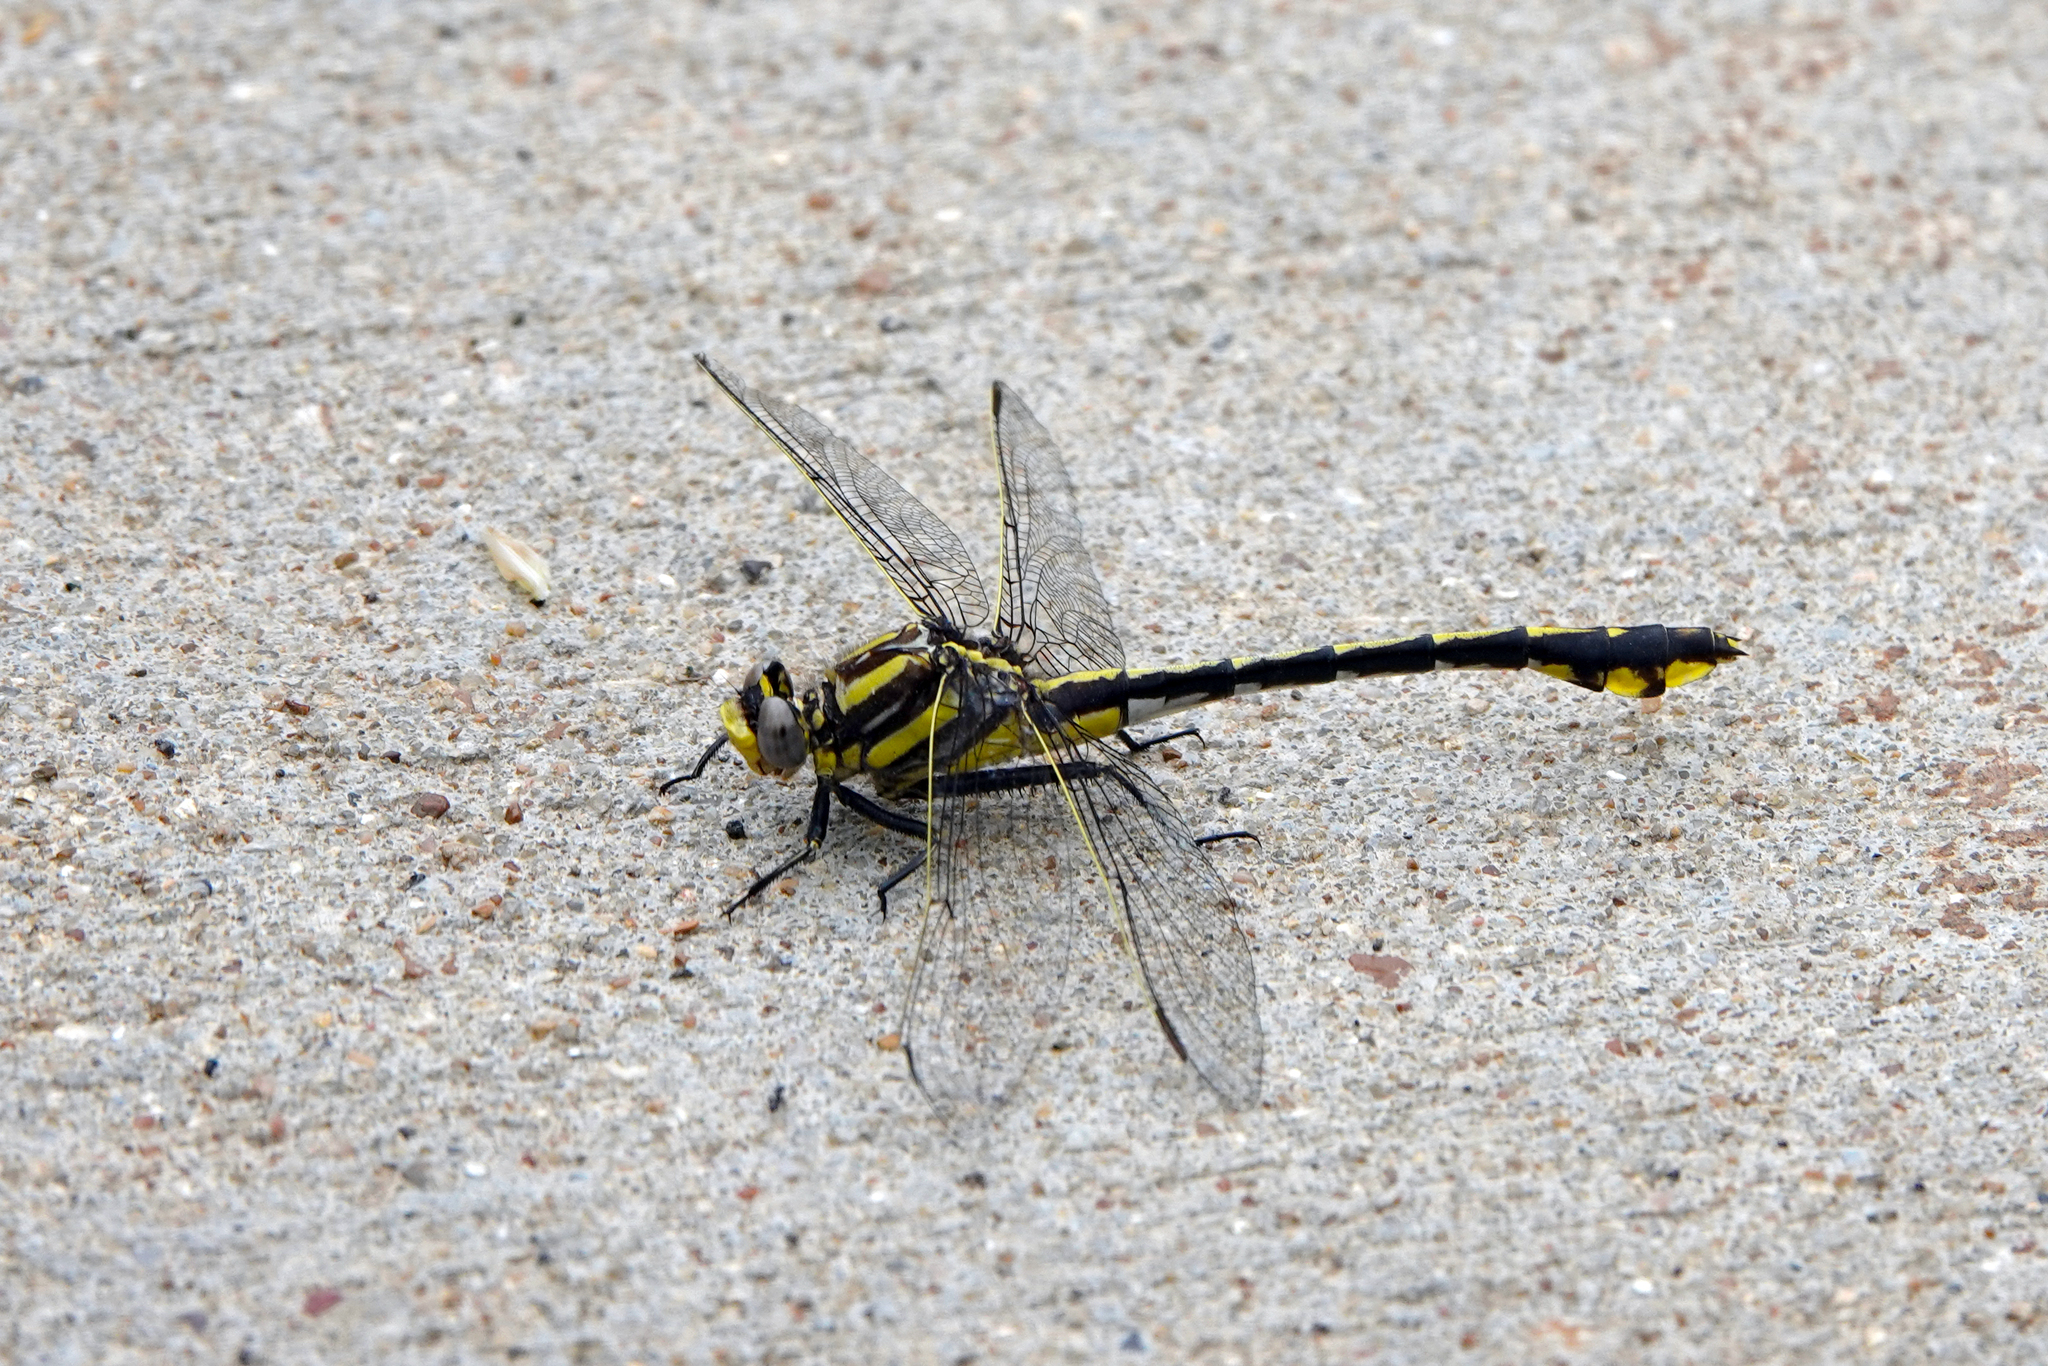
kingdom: Animalia
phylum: Arthropoda
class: Insecta
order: Odonata
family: Gomphidae
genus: Gomphurus
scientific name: Gomphurus externus
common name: Plains clubtail
